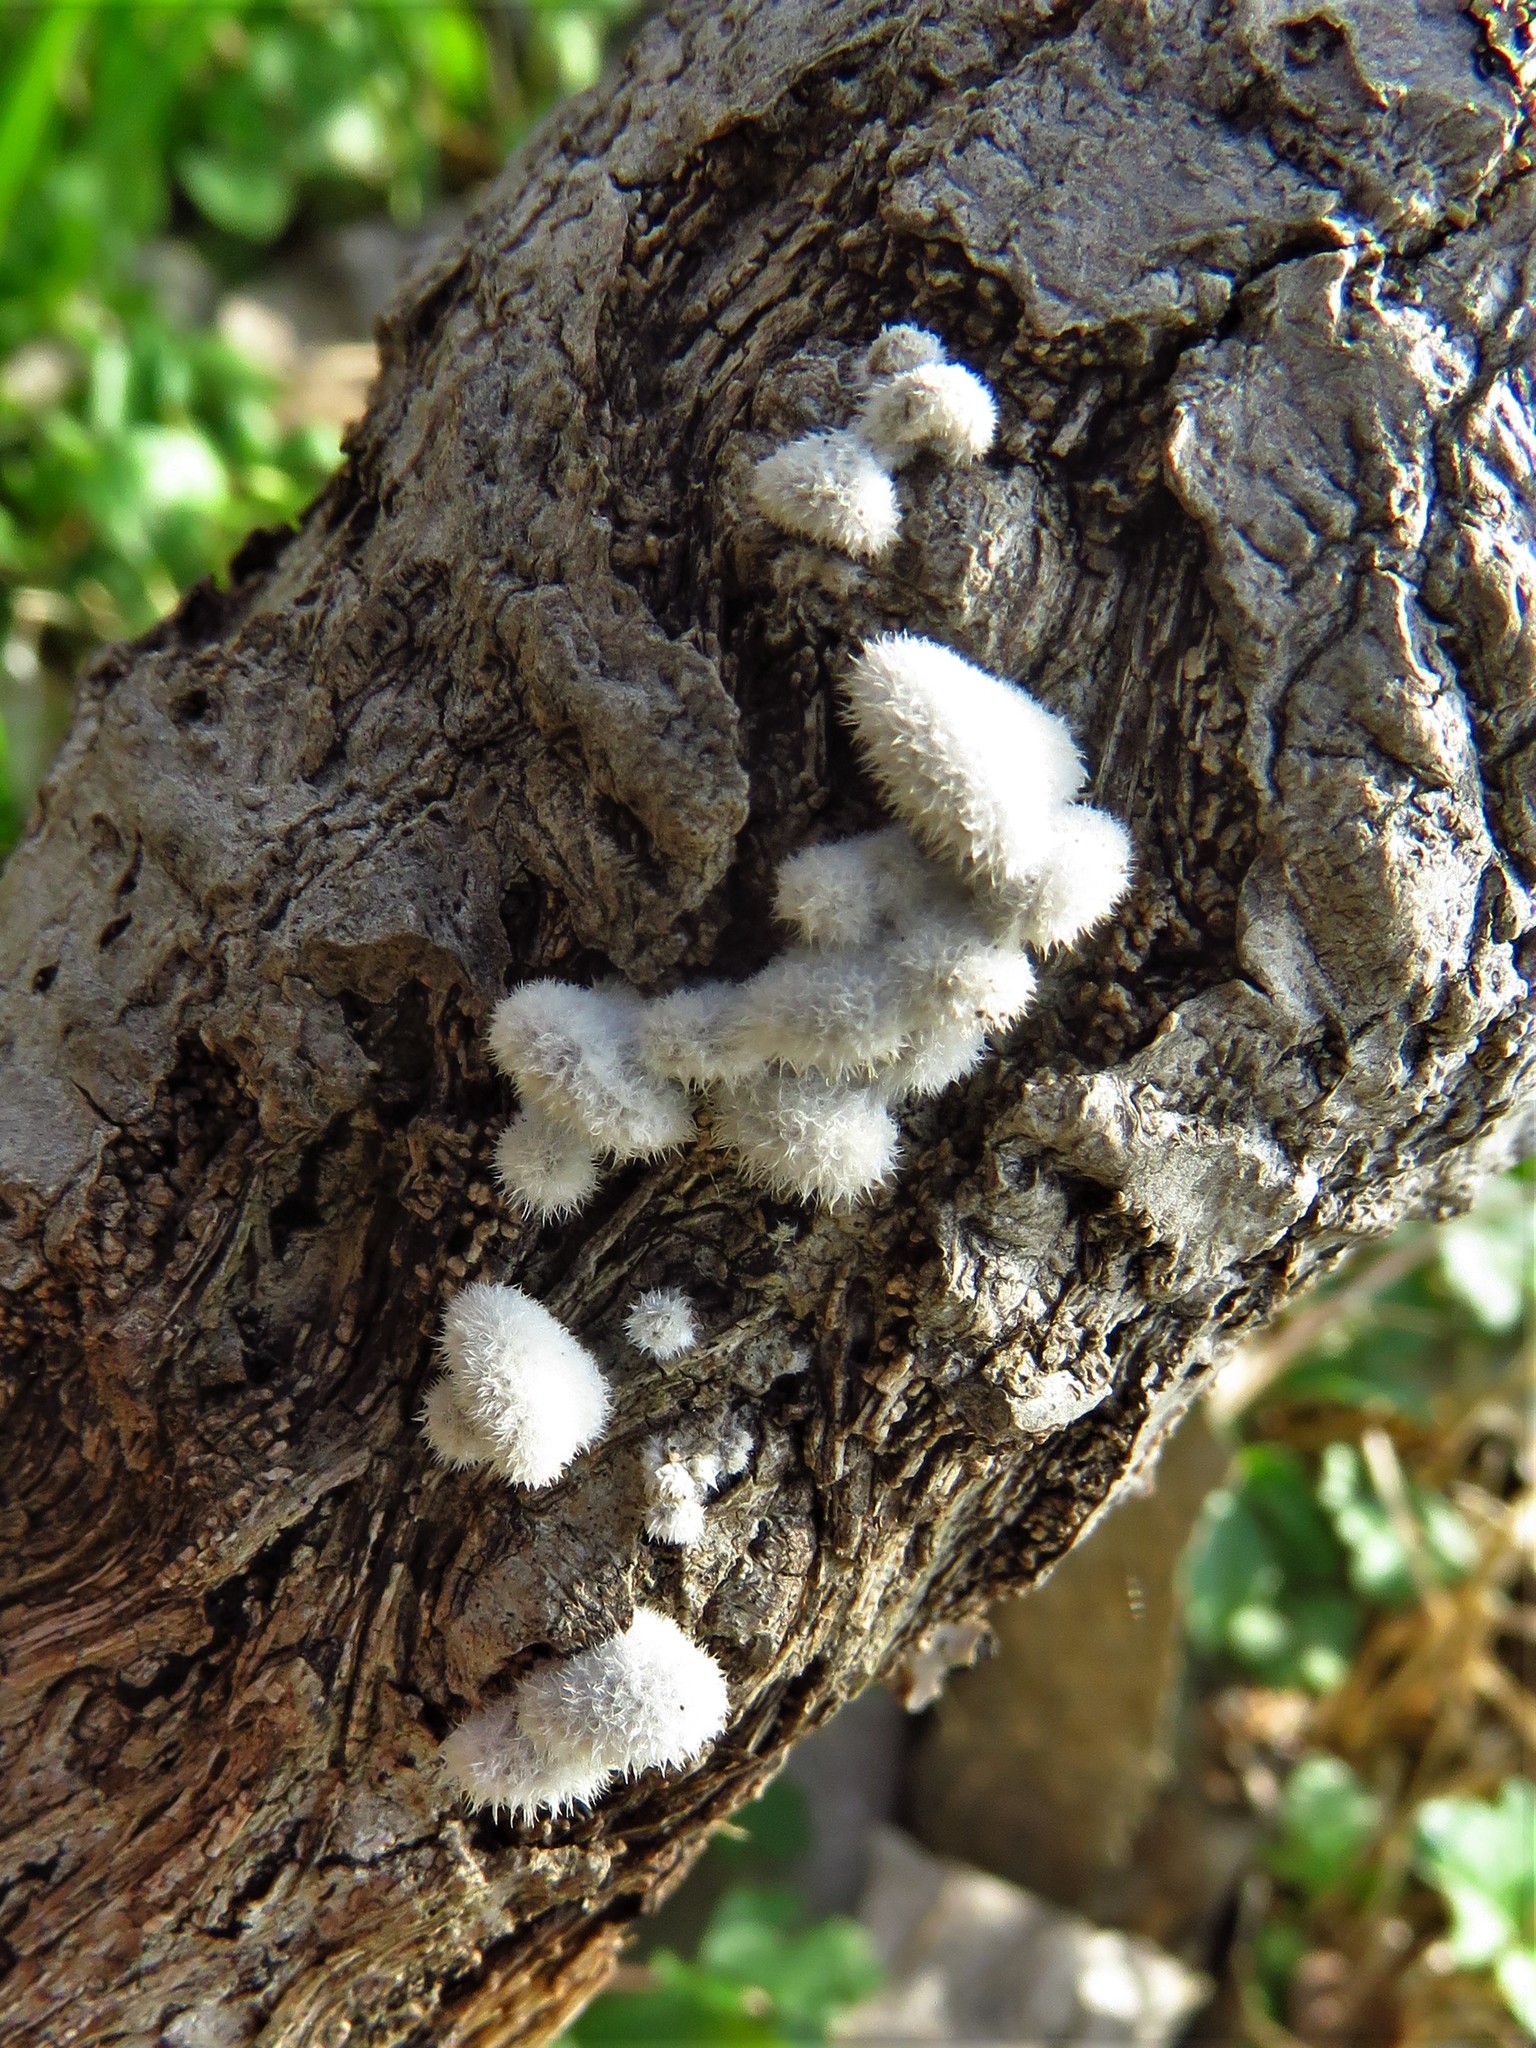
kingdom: Fungi
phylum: Basidiomycota
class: Agaricomycetes
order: Agaricales
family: Schizophyllaceae
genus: Schizophyllum
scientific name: Schizophyllum commune
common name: Common porecrust
